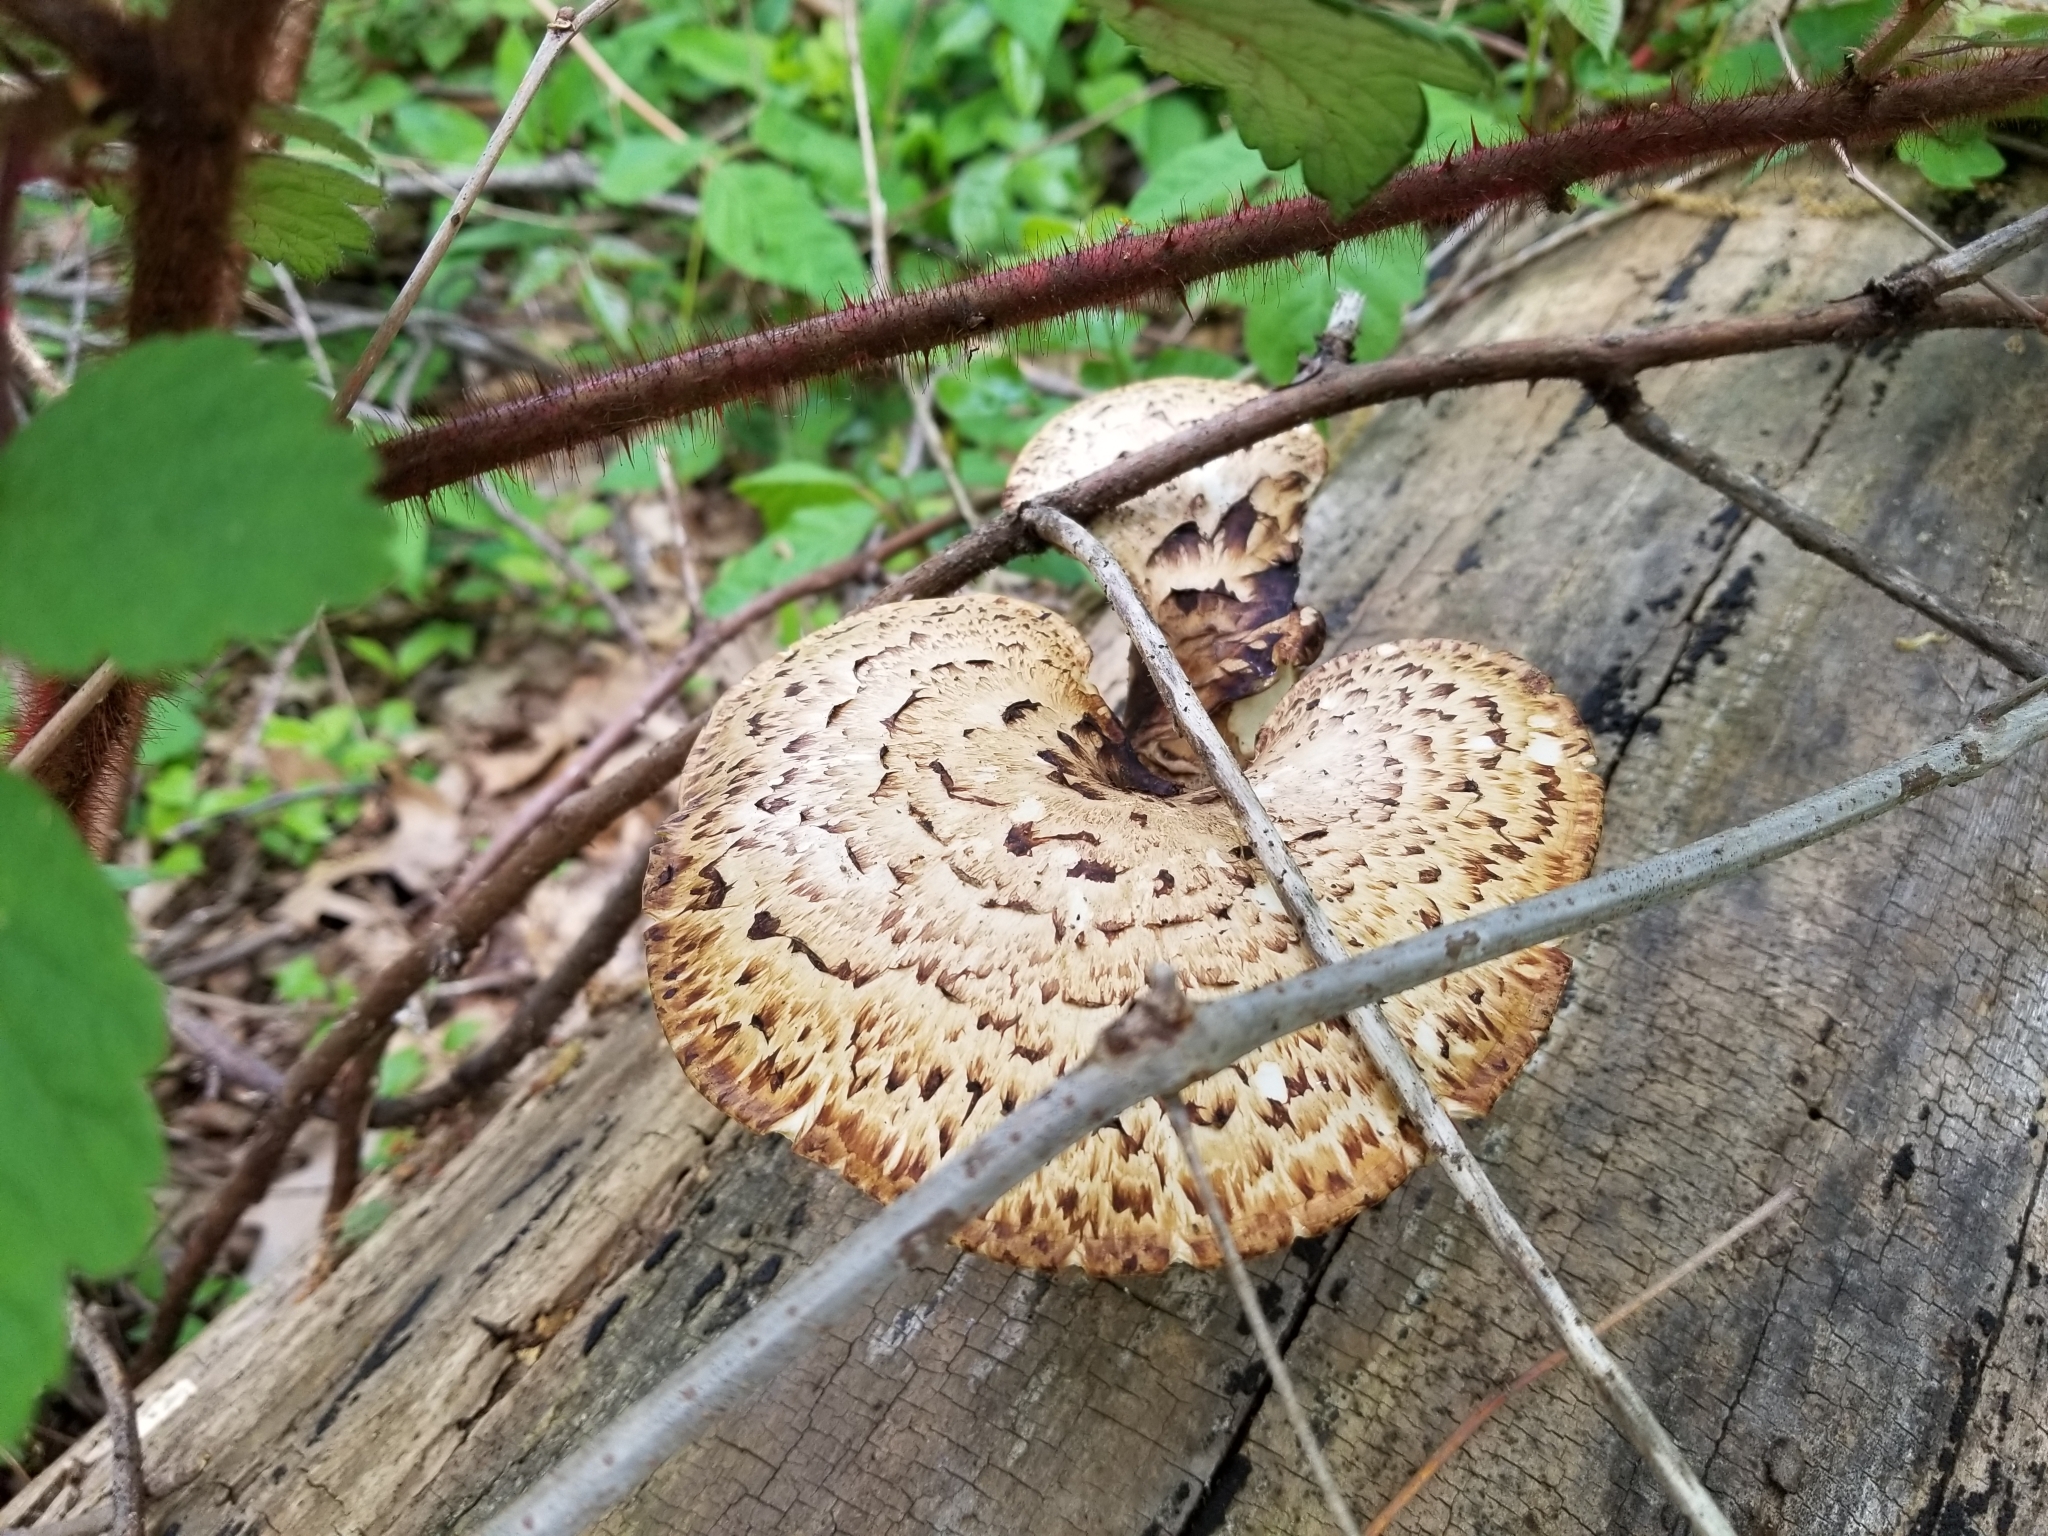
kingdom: Fungi
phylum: Basidiomycota
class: Agaricomycetes
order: Polyporales
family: Polyporaceae
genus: Cerioporus
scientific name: Cerioporus squamosus
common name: Dryad's saddle
